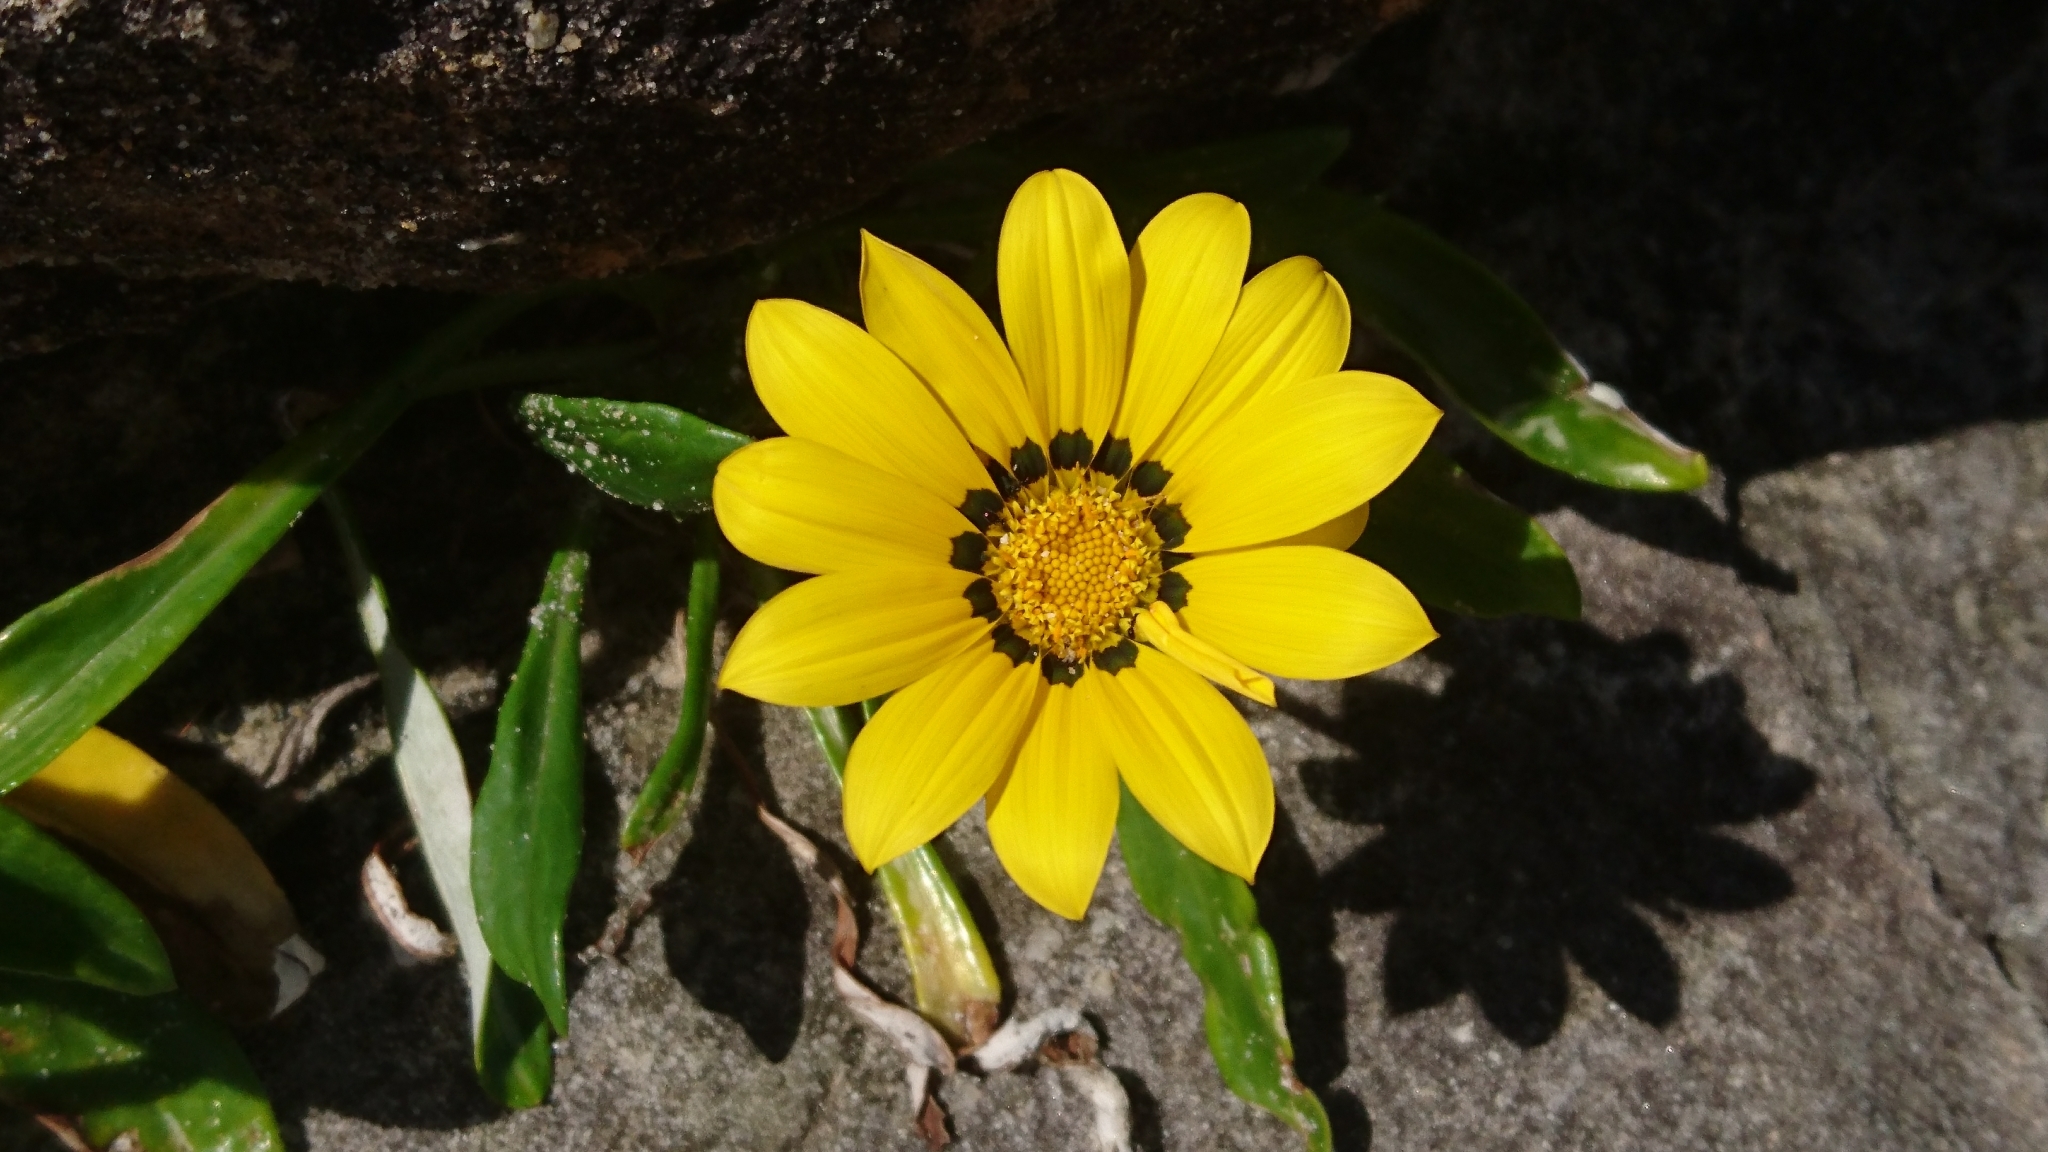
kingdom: Plantae
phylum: Tracheophyta
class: Magnoliopsida
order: Asterales
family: Asteraceae
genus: Gazania
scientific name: Gazania rigens
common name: Treasureflower
